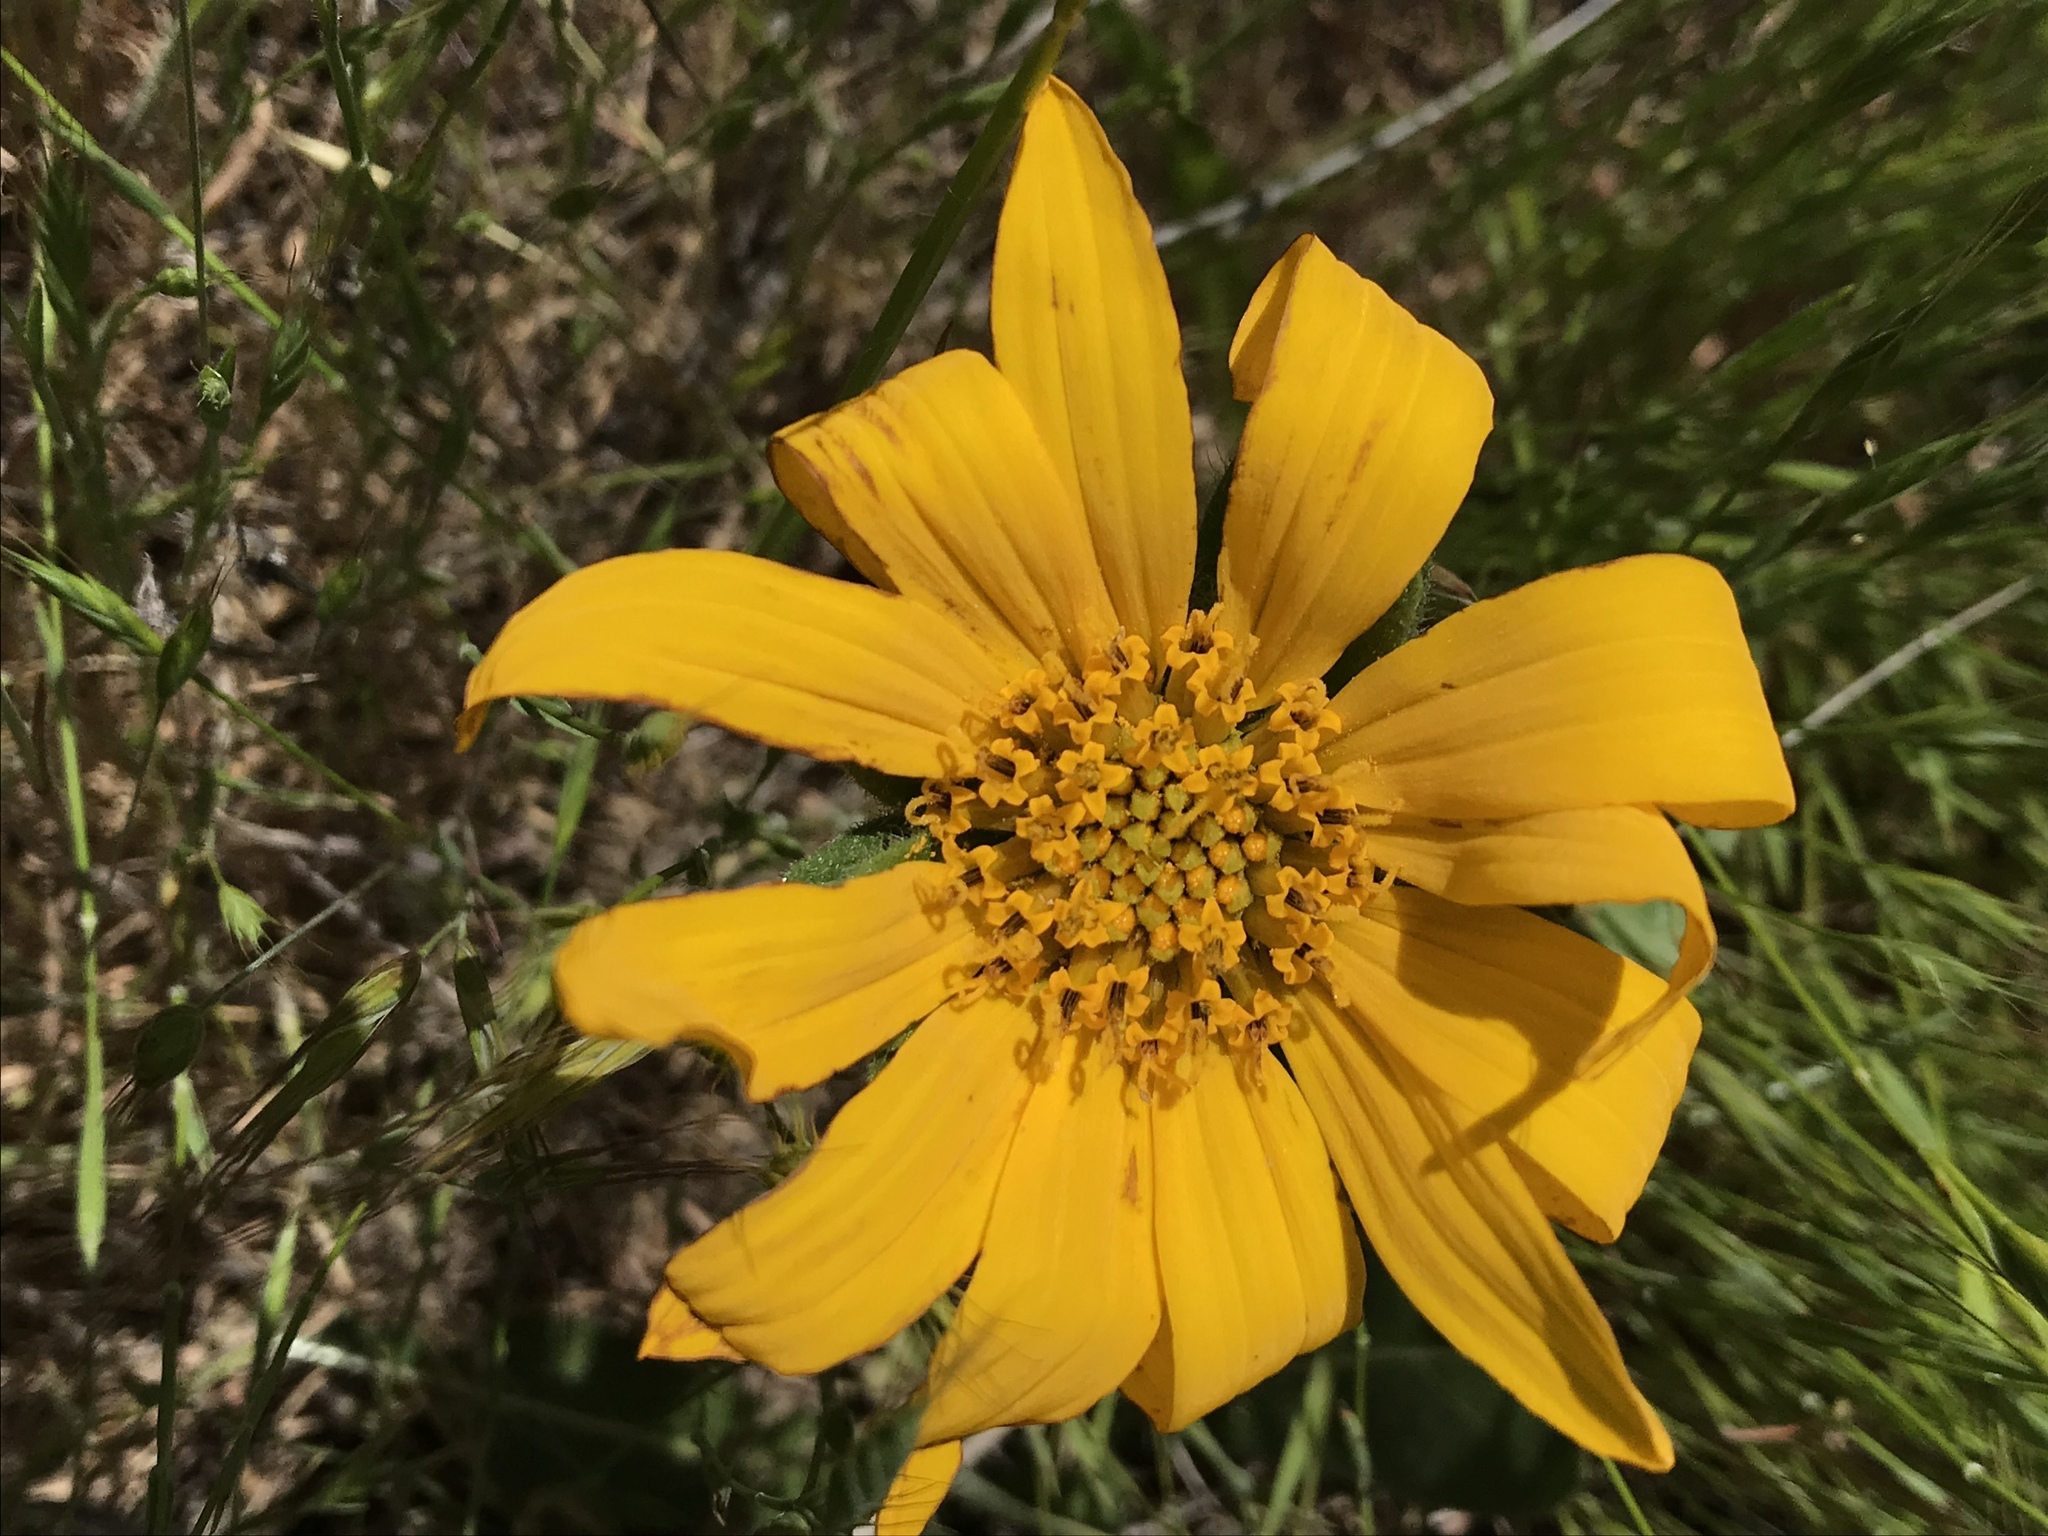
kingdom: Plantae
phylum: Tracheophyta
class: Magnoliopsida
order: Asterales
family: Asteraceae
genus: Wyethia
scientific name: Wyethia angustifolia
